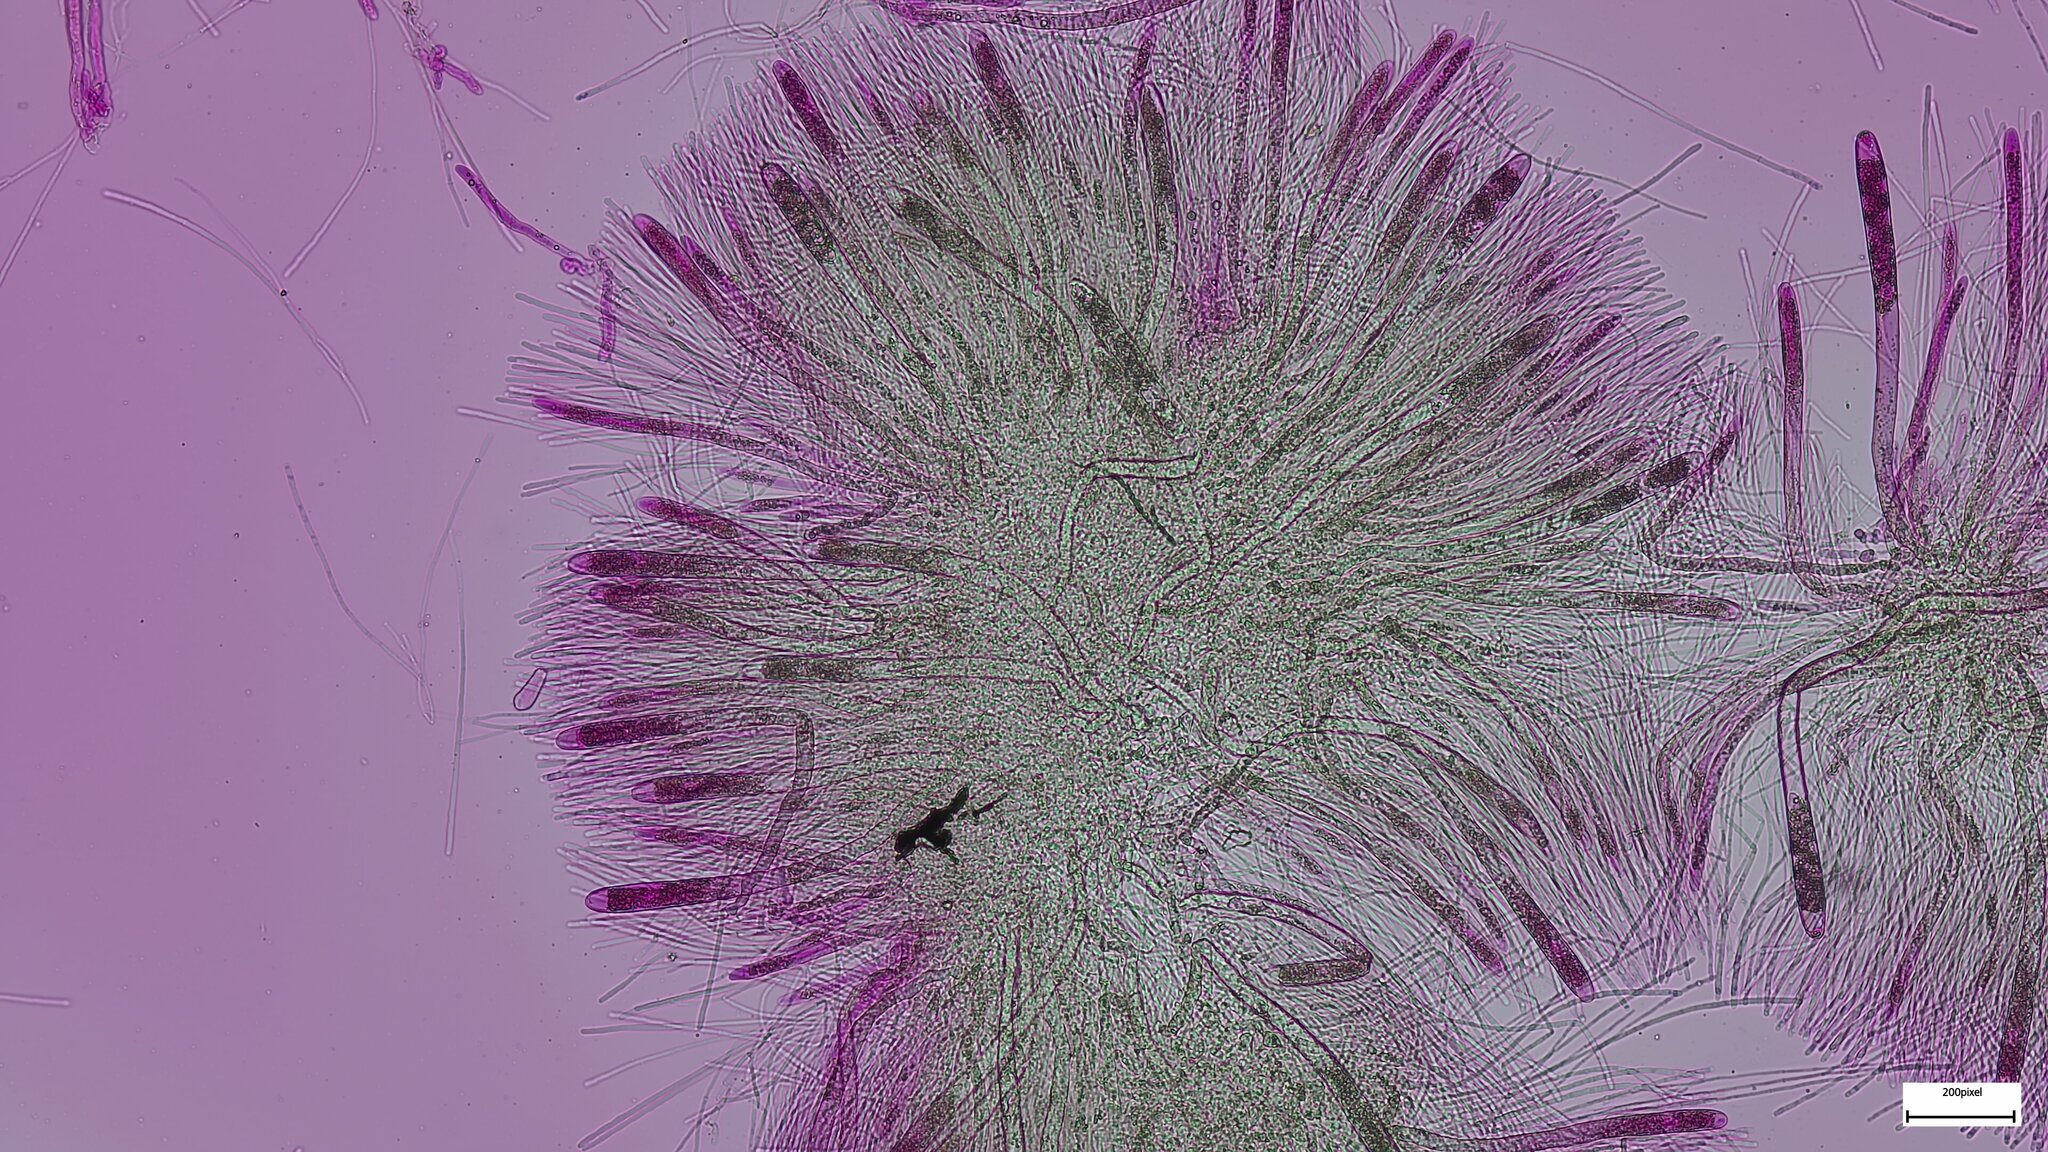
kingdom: Fungi
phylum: Ascomycota
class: Pezizomycetes
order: Pezizales
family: Helvellaceae
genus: Helvella
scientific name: Helvella ephippium
